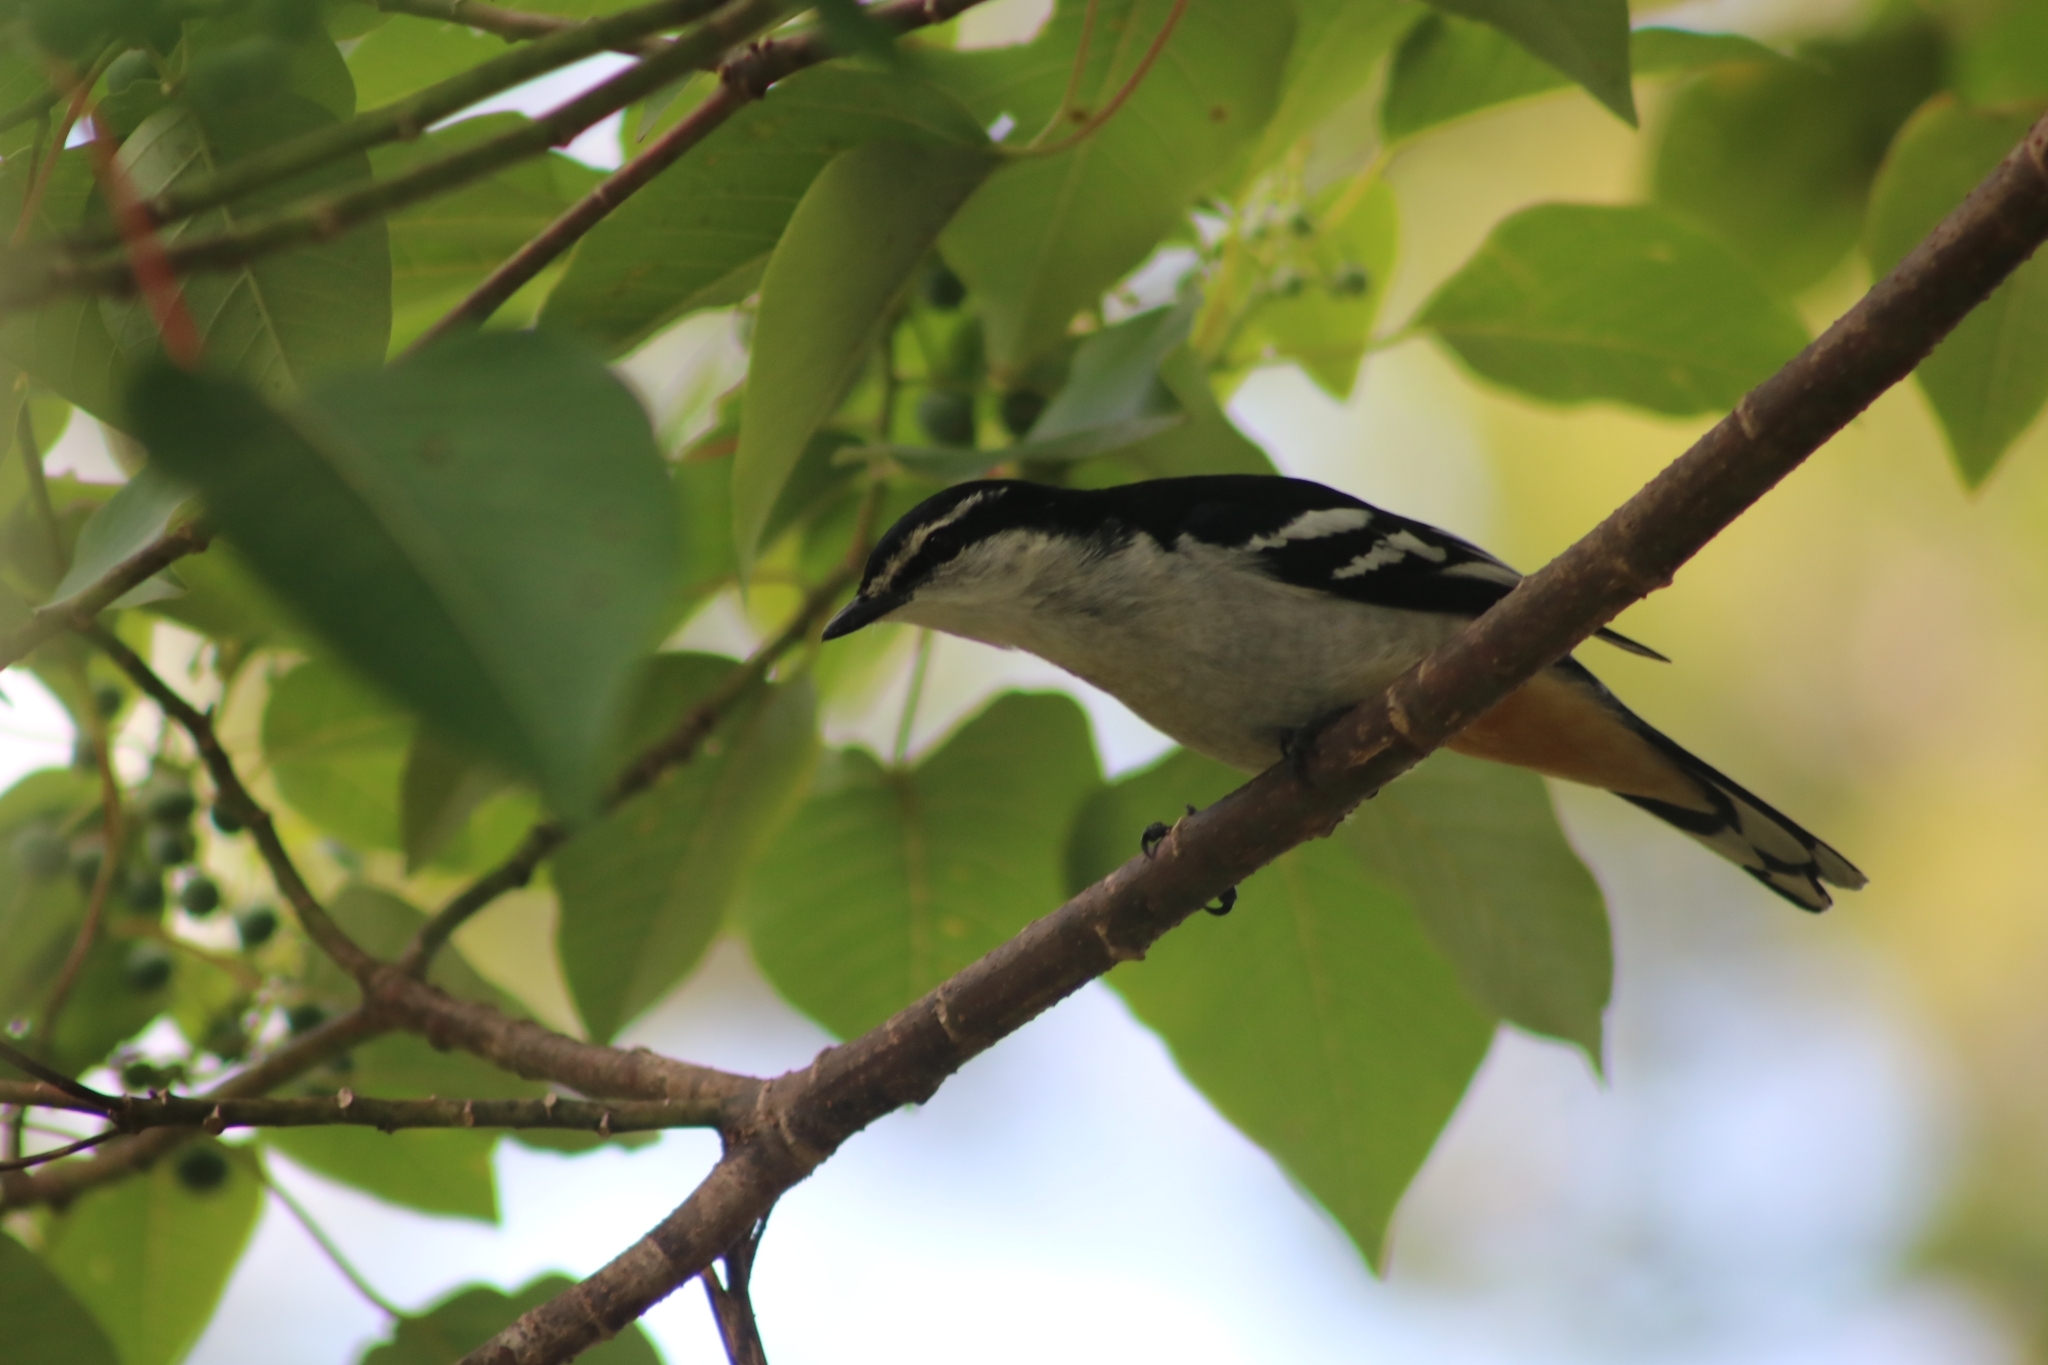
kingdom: Animalia
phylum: Chordata
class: Aves
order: Passeriformes
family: Campephagidae
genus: Lalage
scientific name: Lalage leucomela
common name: Varied triller
